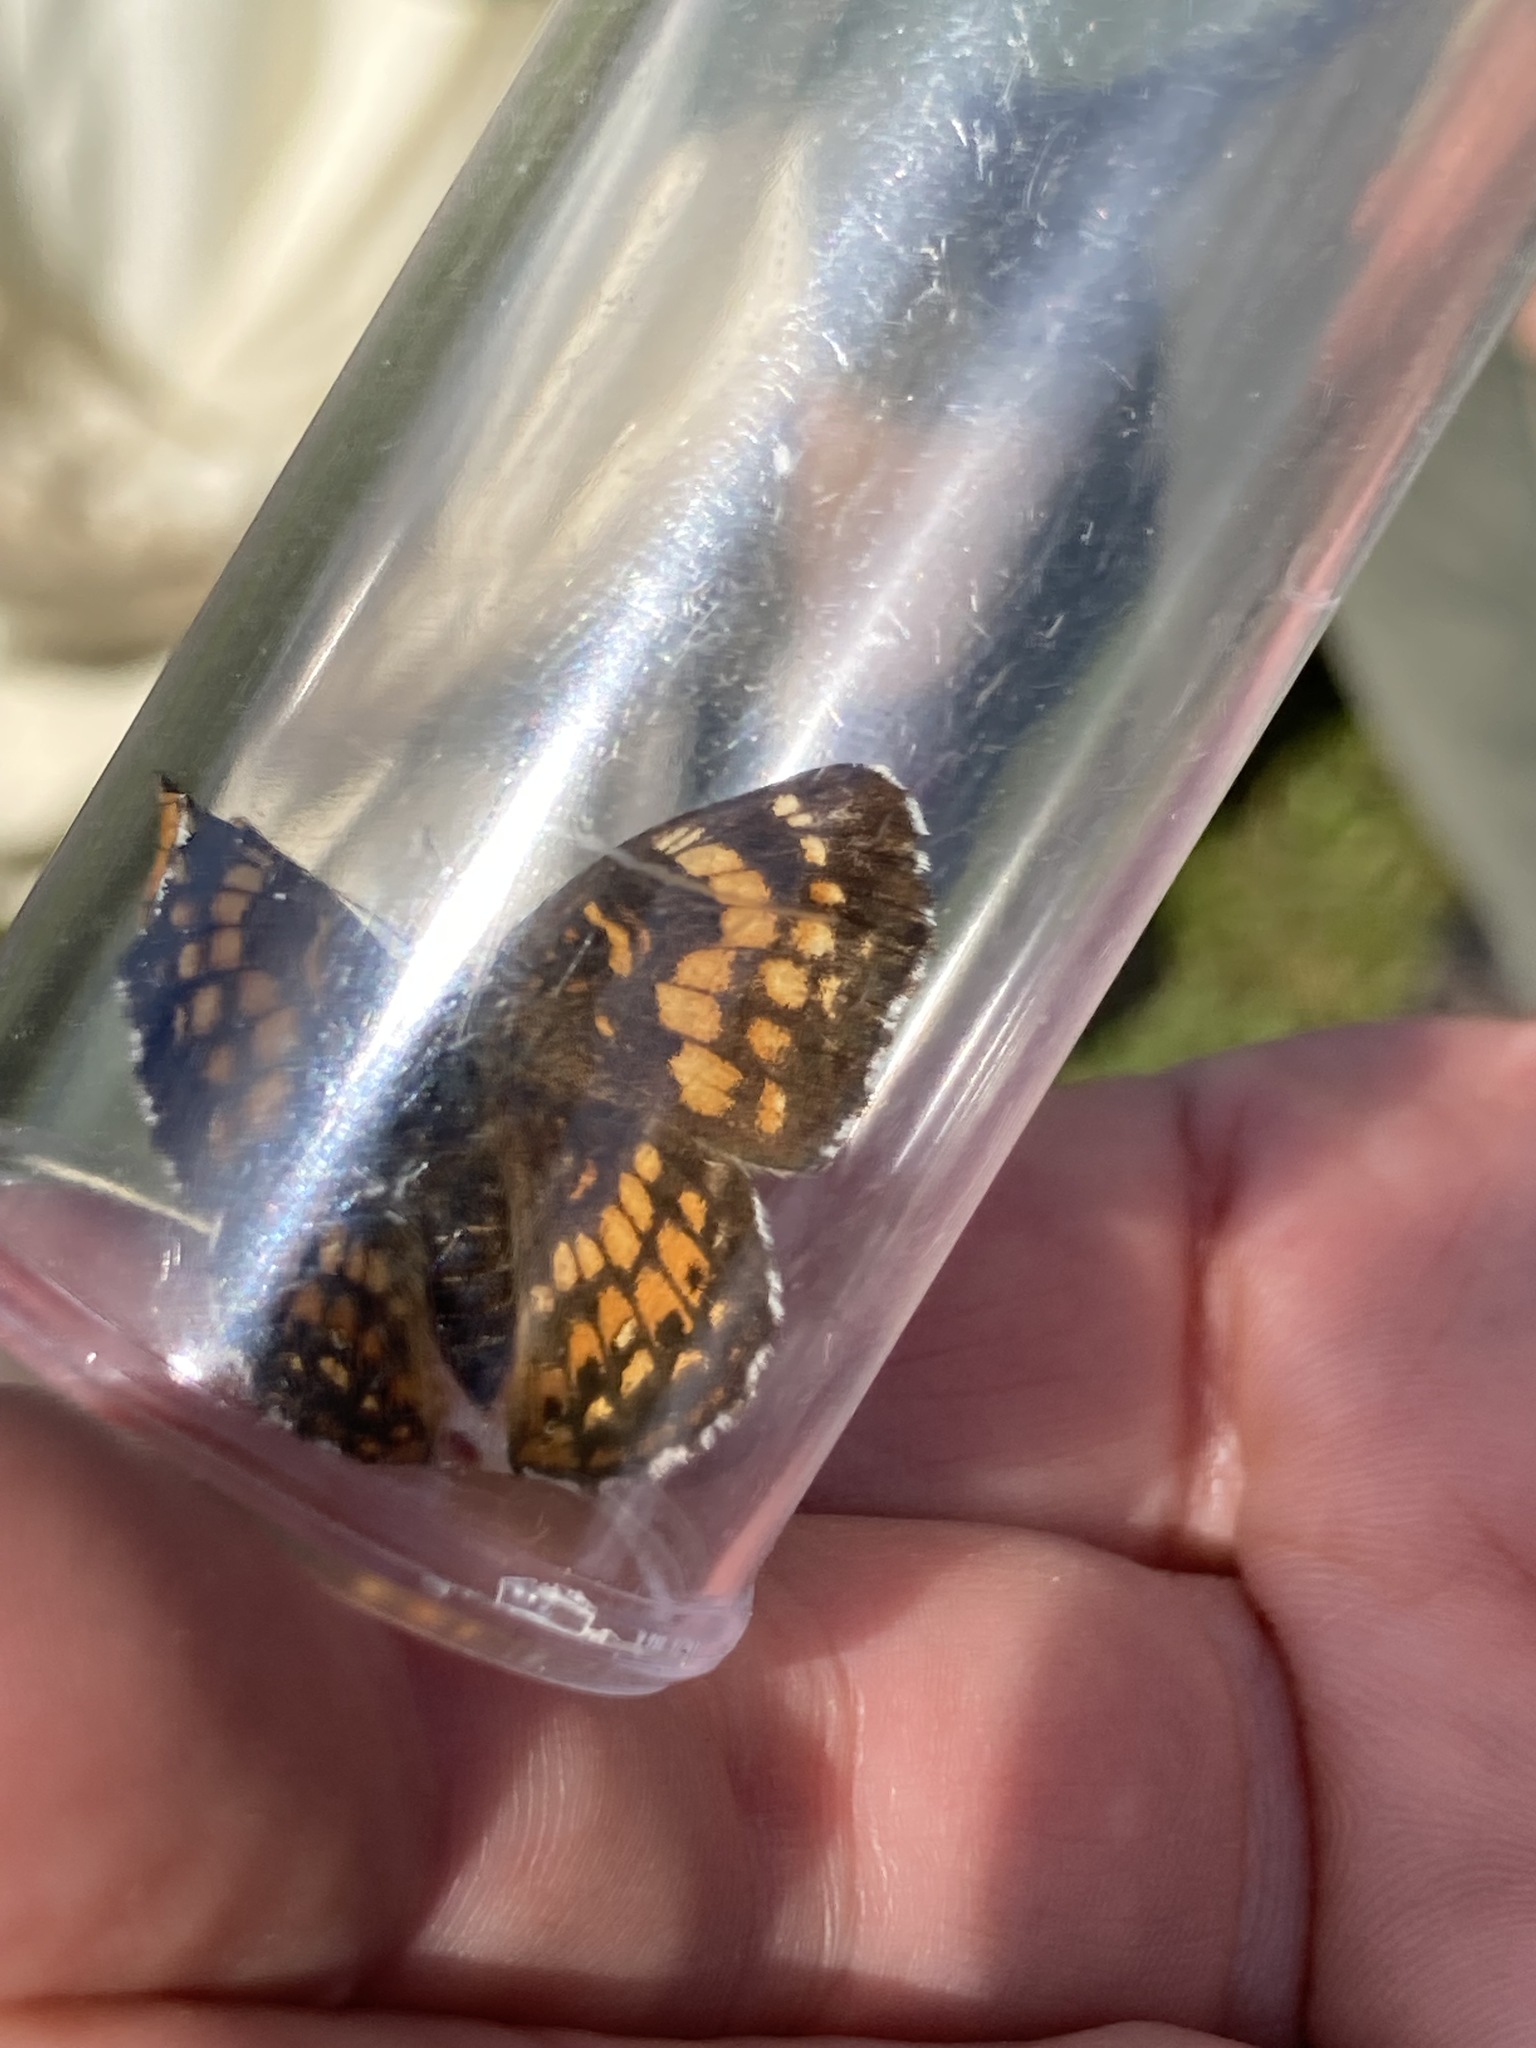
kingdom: Animalia
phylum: Arthropoda
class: Insecta
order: Lepidoptera
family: Nymphalidae
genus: Chlosyne
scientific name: Chlosyne harrisii
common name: Harris's checkerspot
